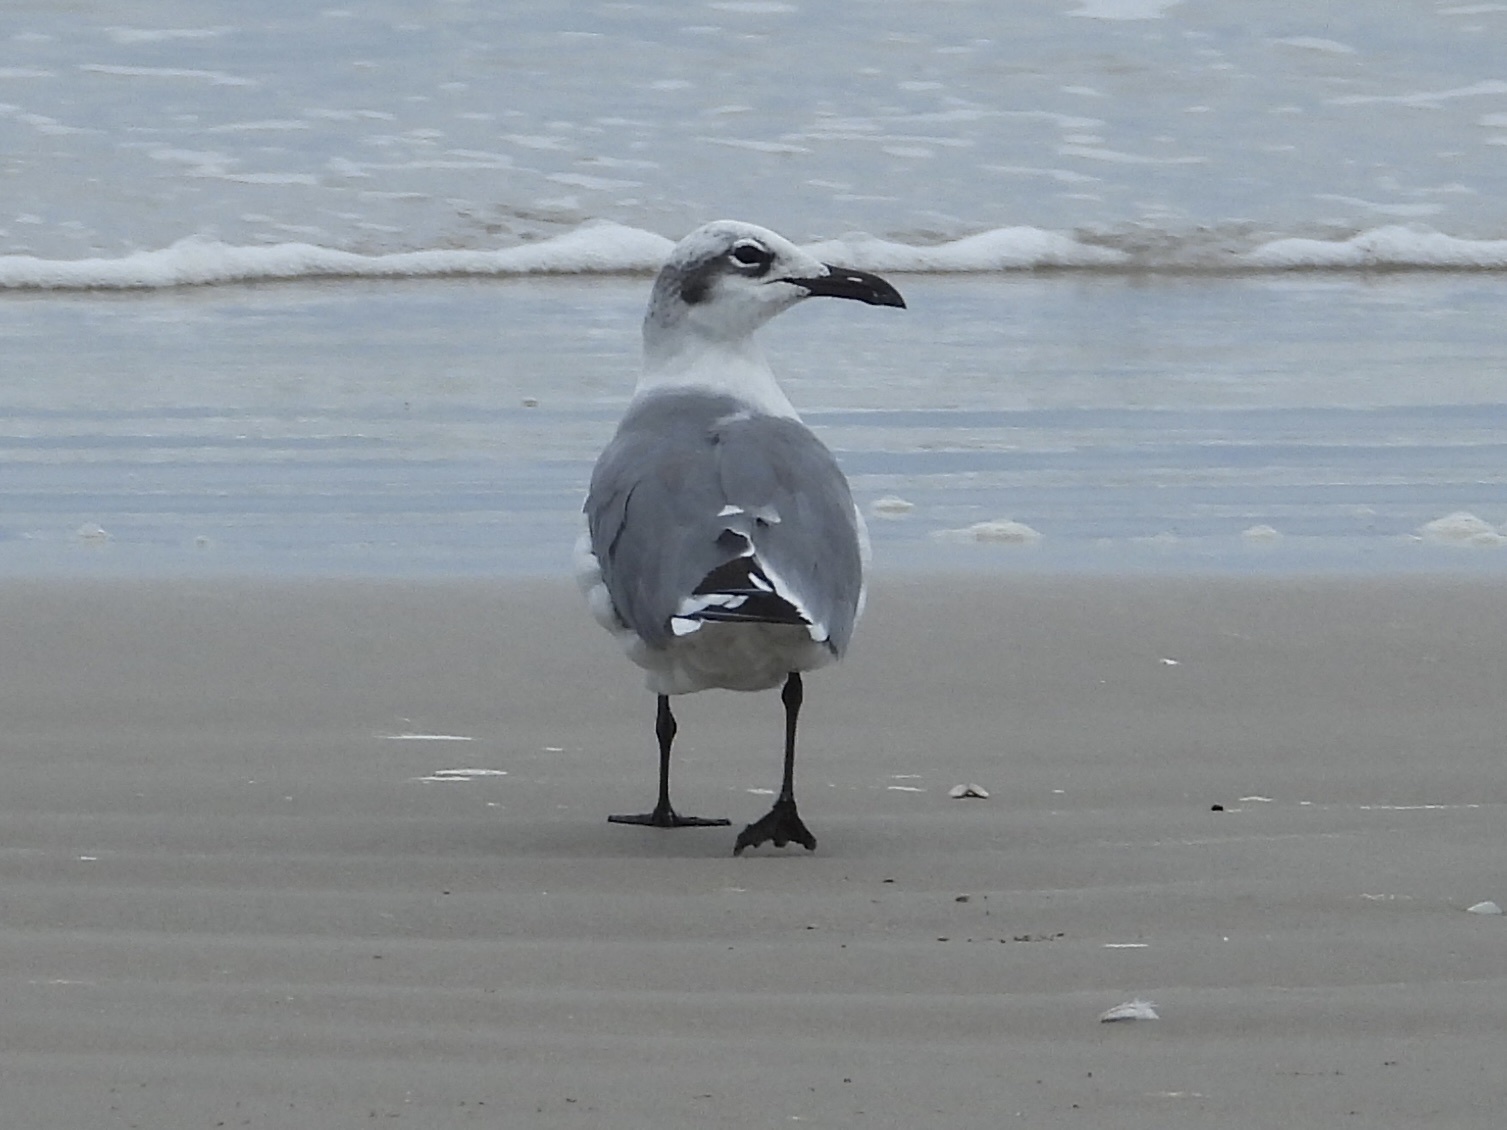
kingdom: Animalia
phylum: Chordata
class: Aves
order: Charadriiformes
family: Laridae
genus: Leucophaeus
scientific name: Leucophaeus atricilla
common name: Laughing gull
